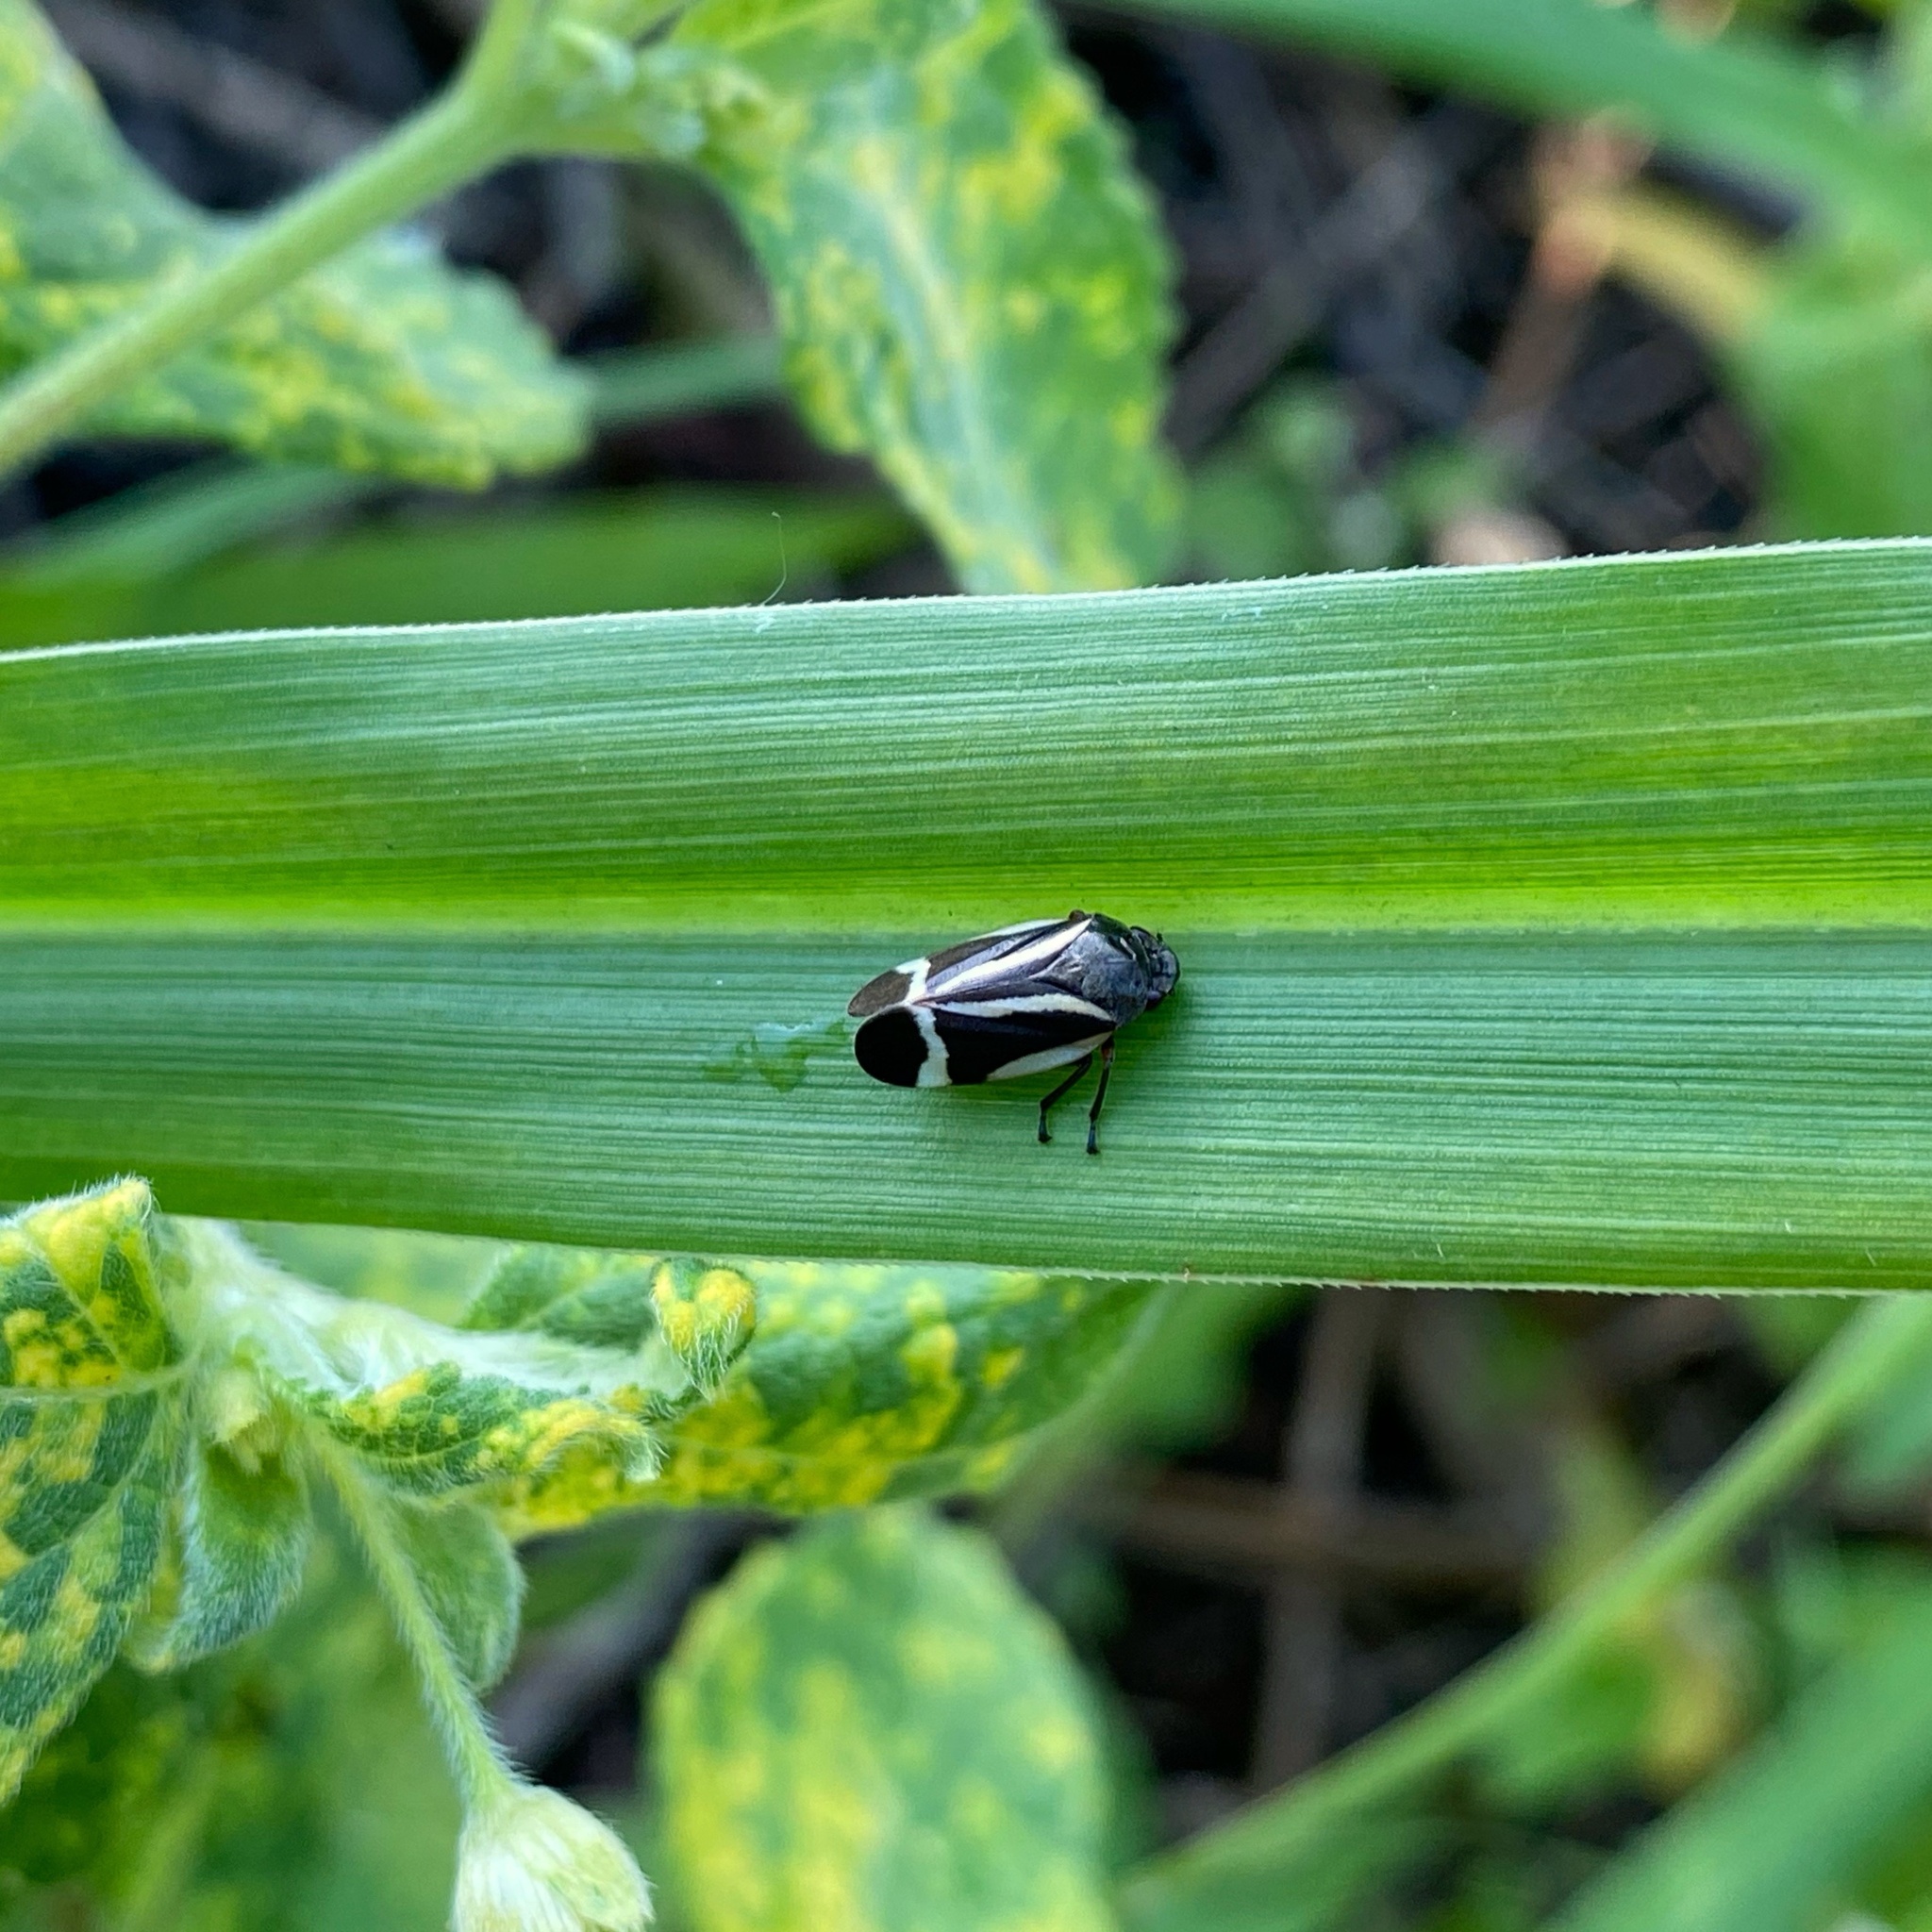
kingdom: Animalia
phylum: Arthropoda
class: Insecta
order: Hemiptera
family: Cercopidae
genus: Notozulia
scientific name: Notozulia entreriana
